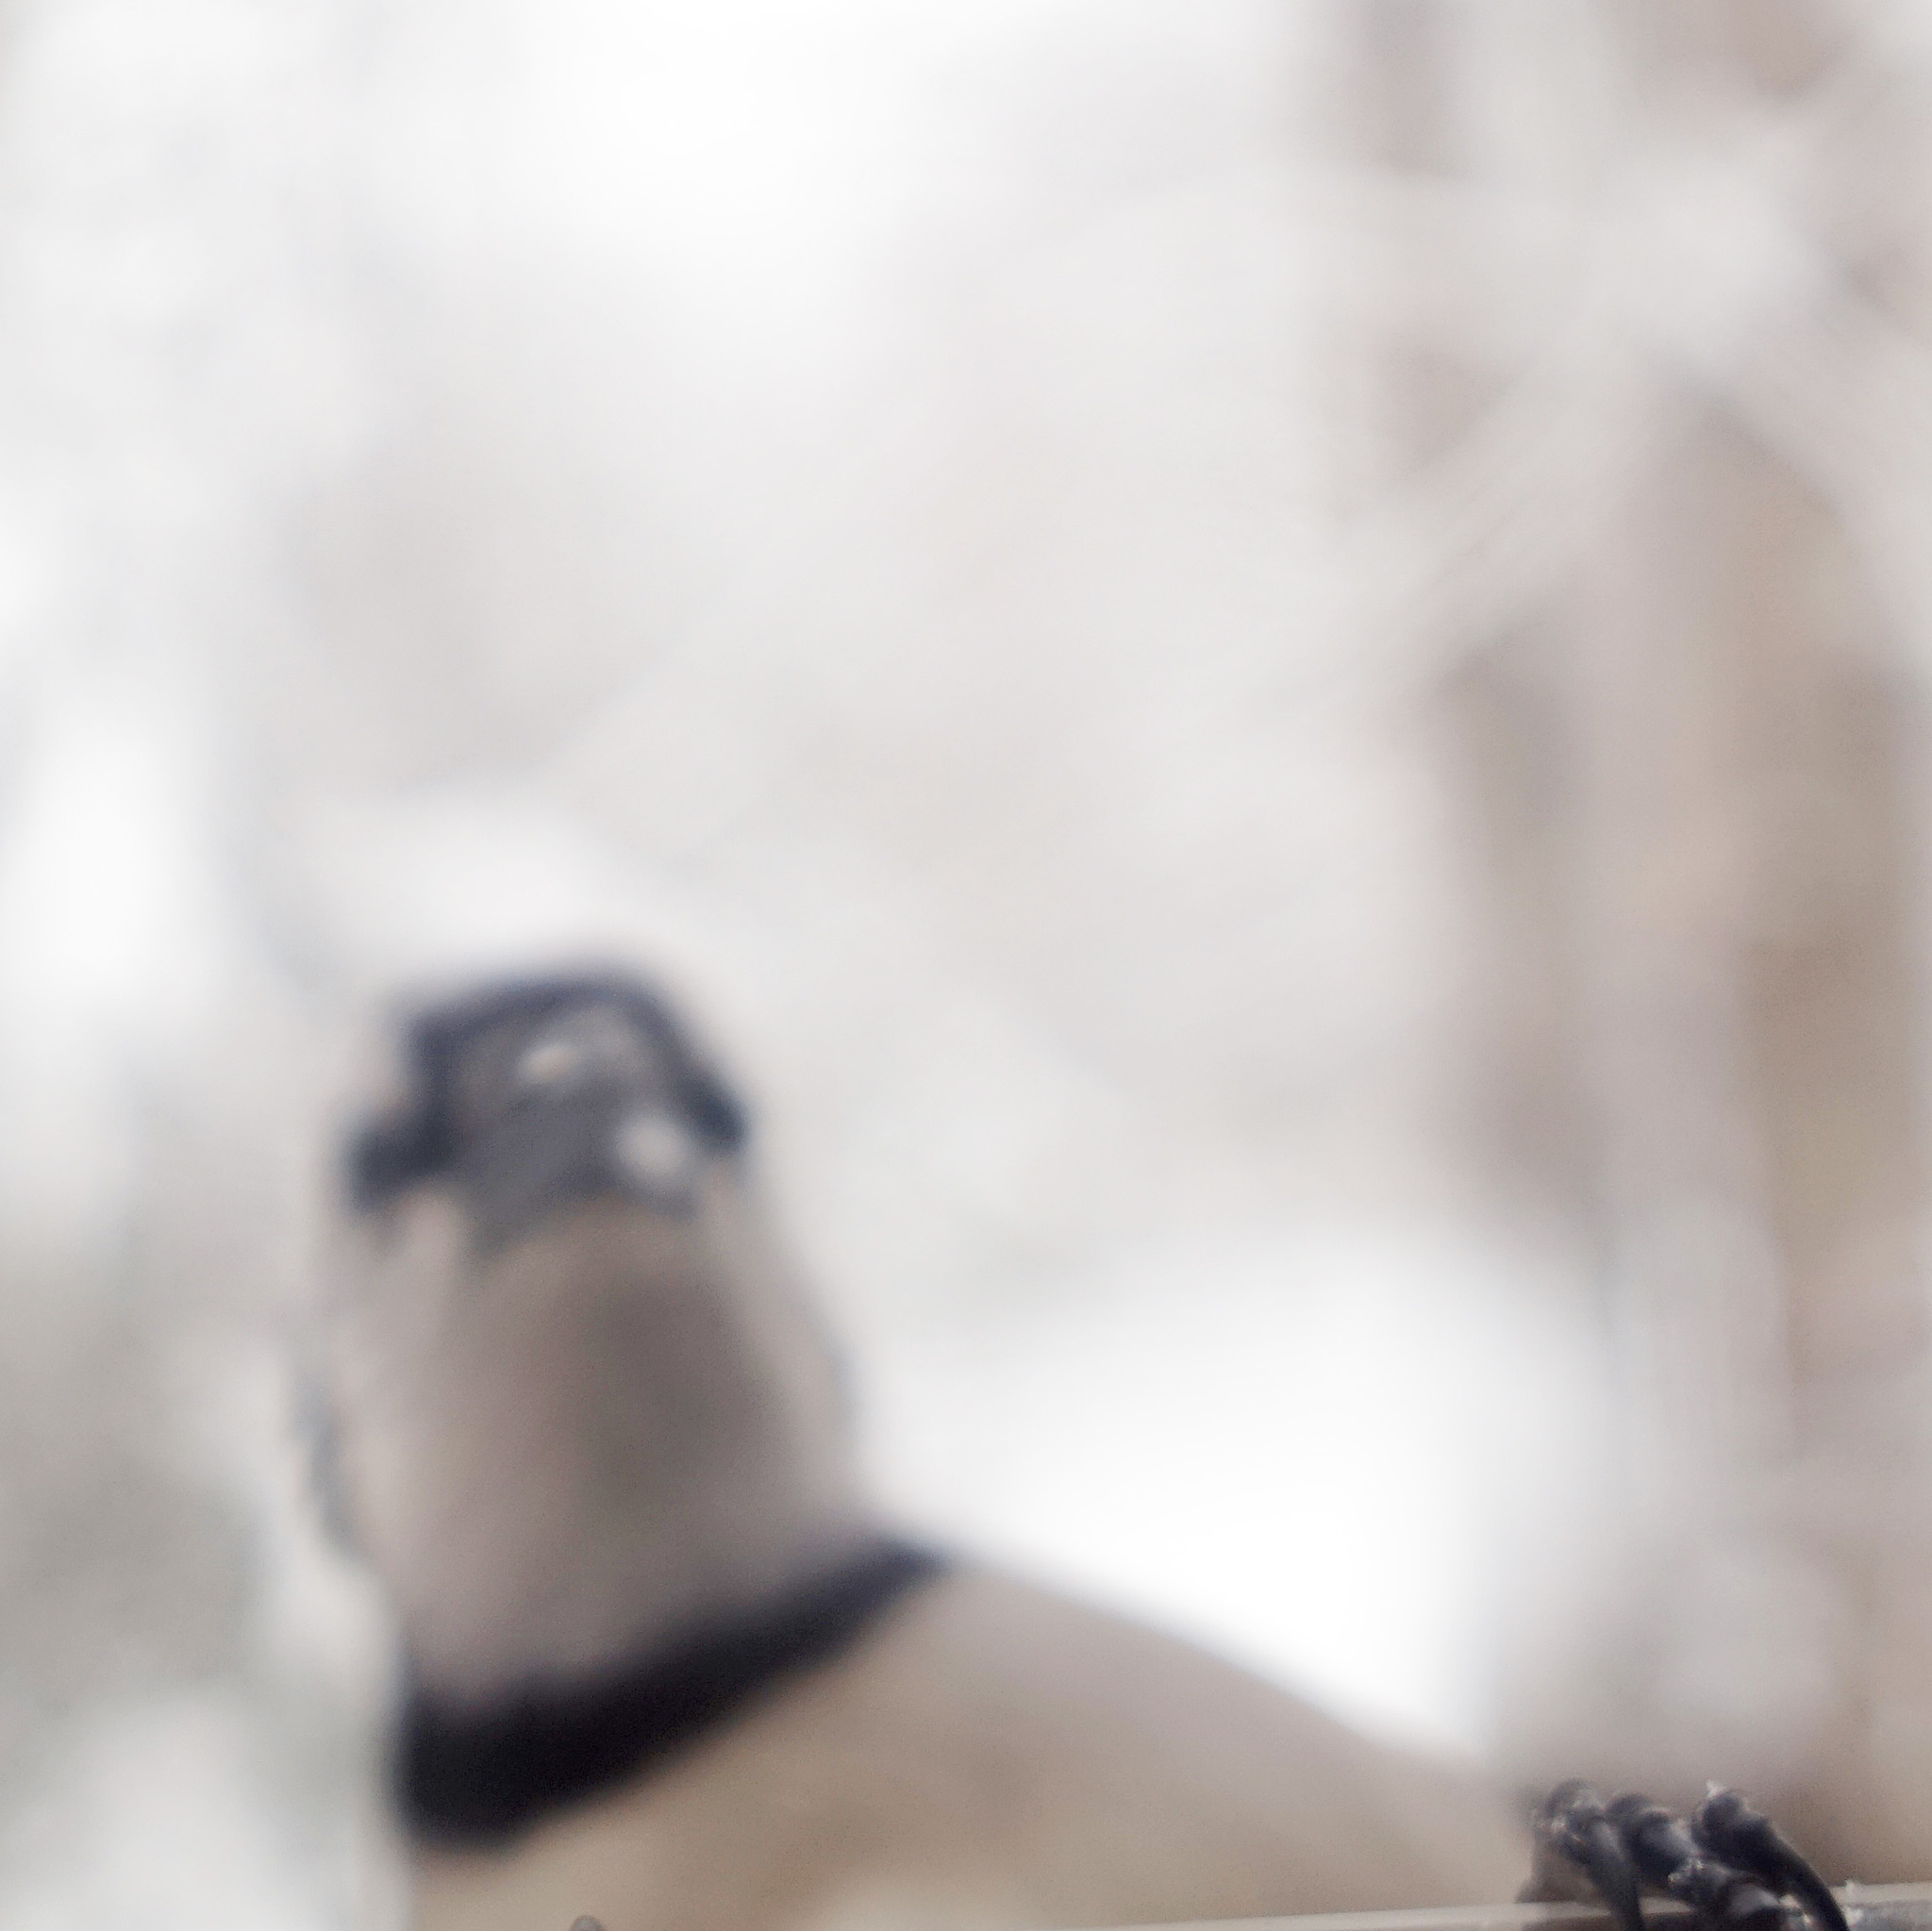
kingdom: Animalia
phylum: Chordata
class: Aves
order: Passeriformes
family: Corvidae
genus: Cyanocitta
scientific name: Cyanocitta cristata
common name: Blue jay
